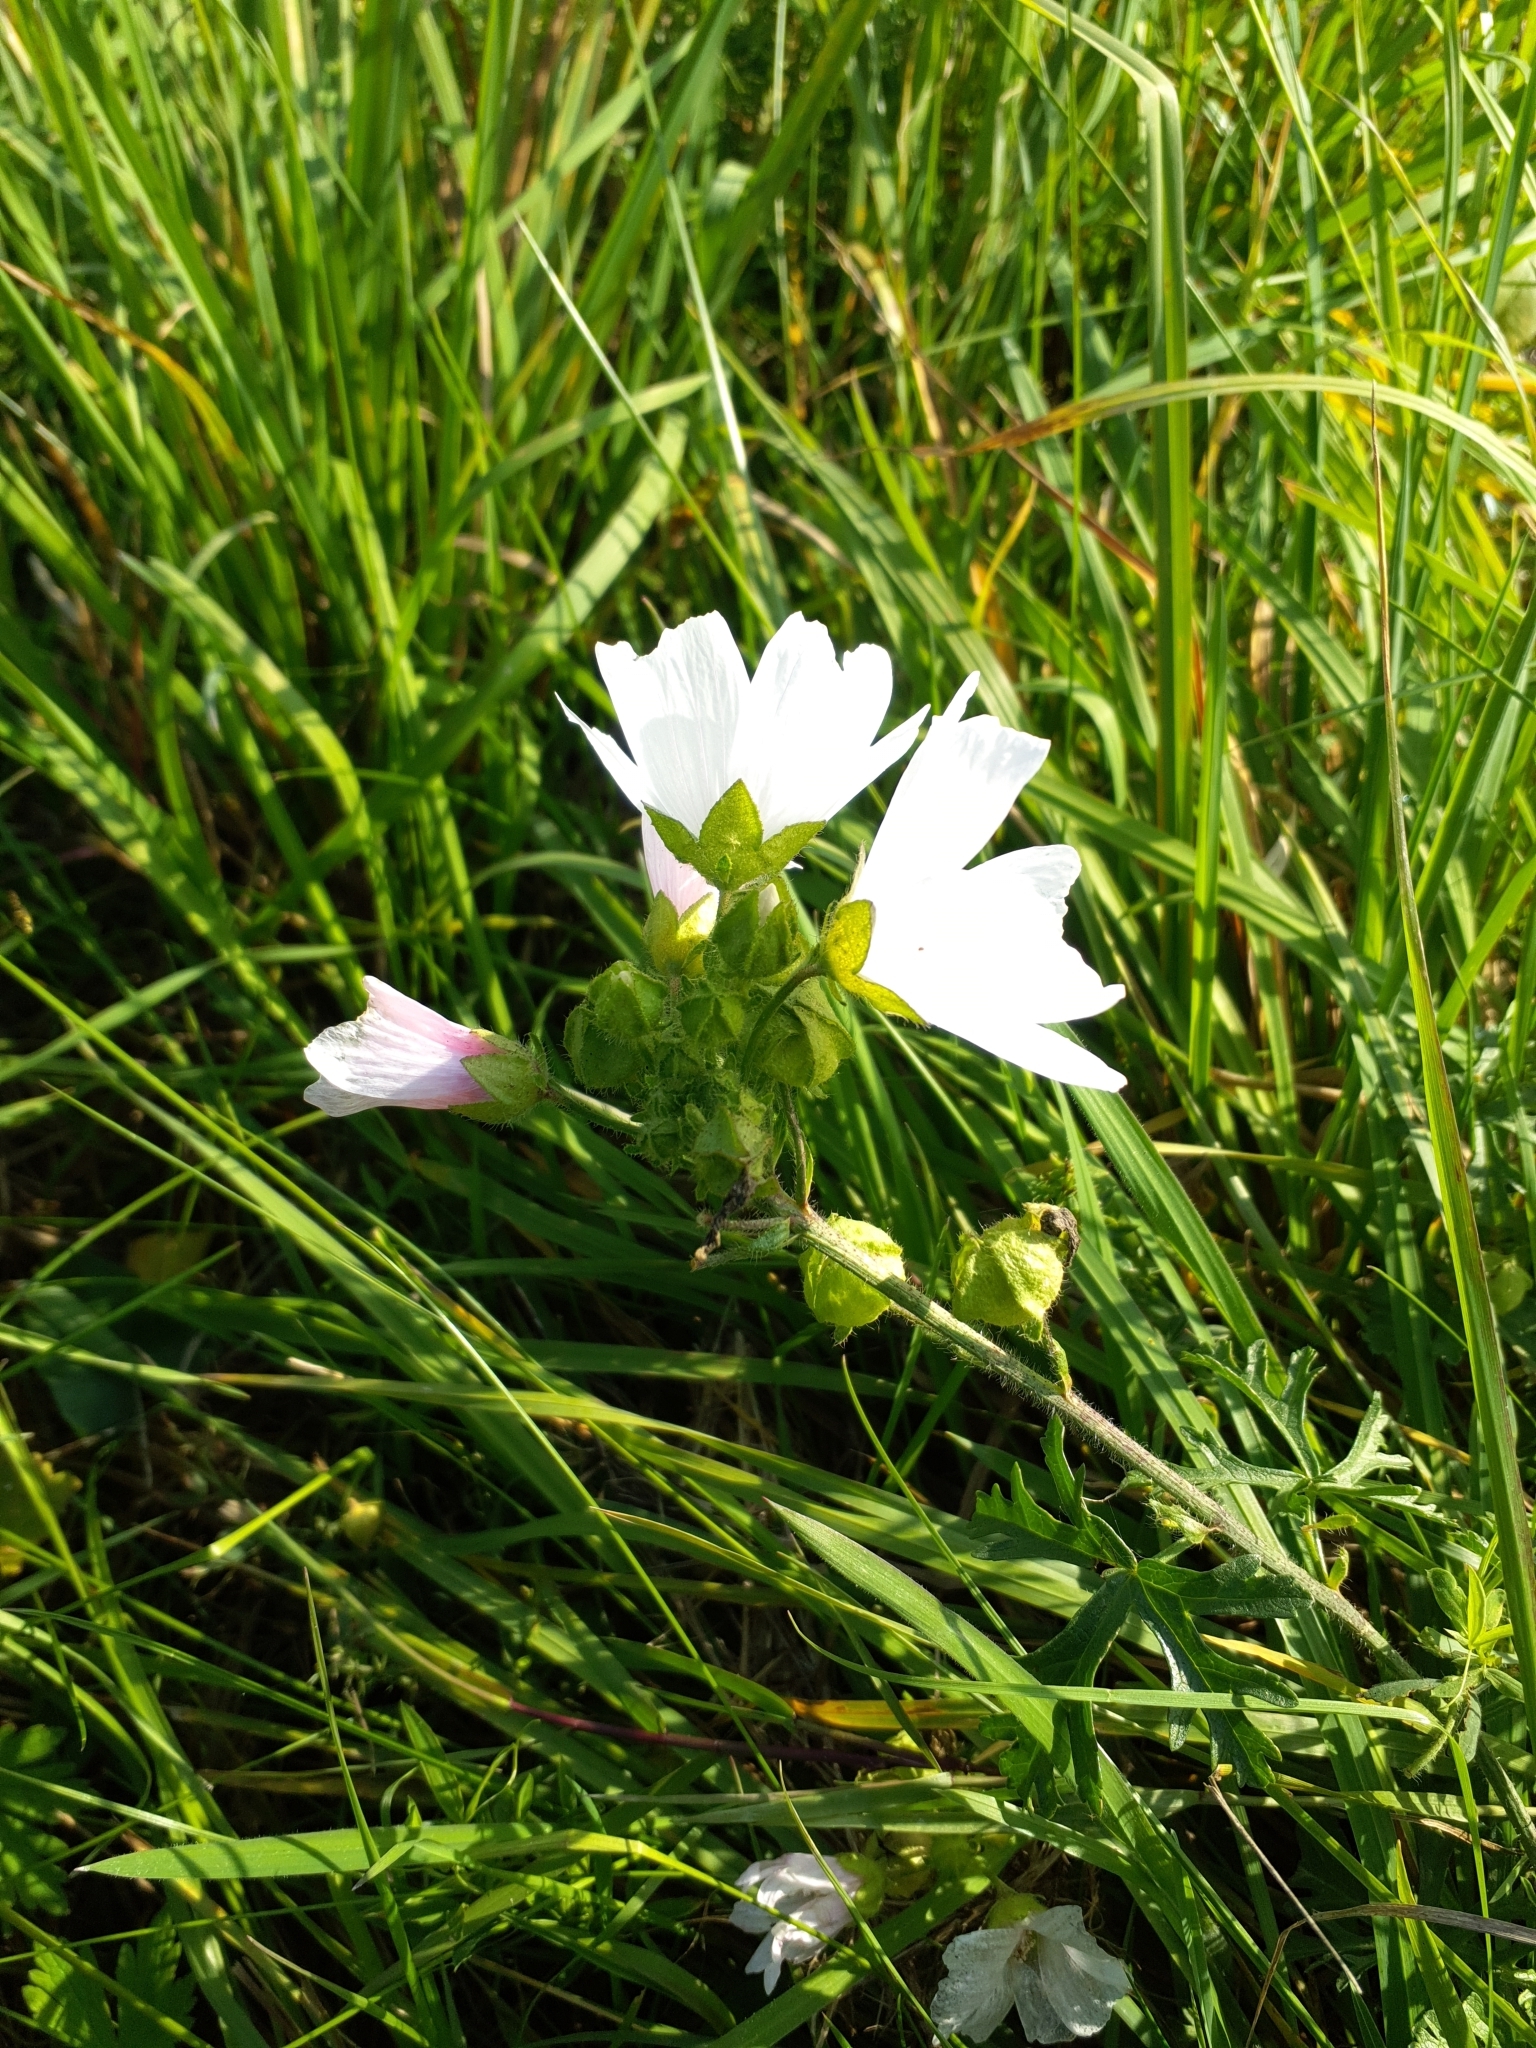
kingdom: Plantae
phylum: Tracheophyta
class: Magnoliopsida
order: Malvales
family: Malvaceae
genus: Malva
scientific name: Malva moschata
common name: Musk mallow
